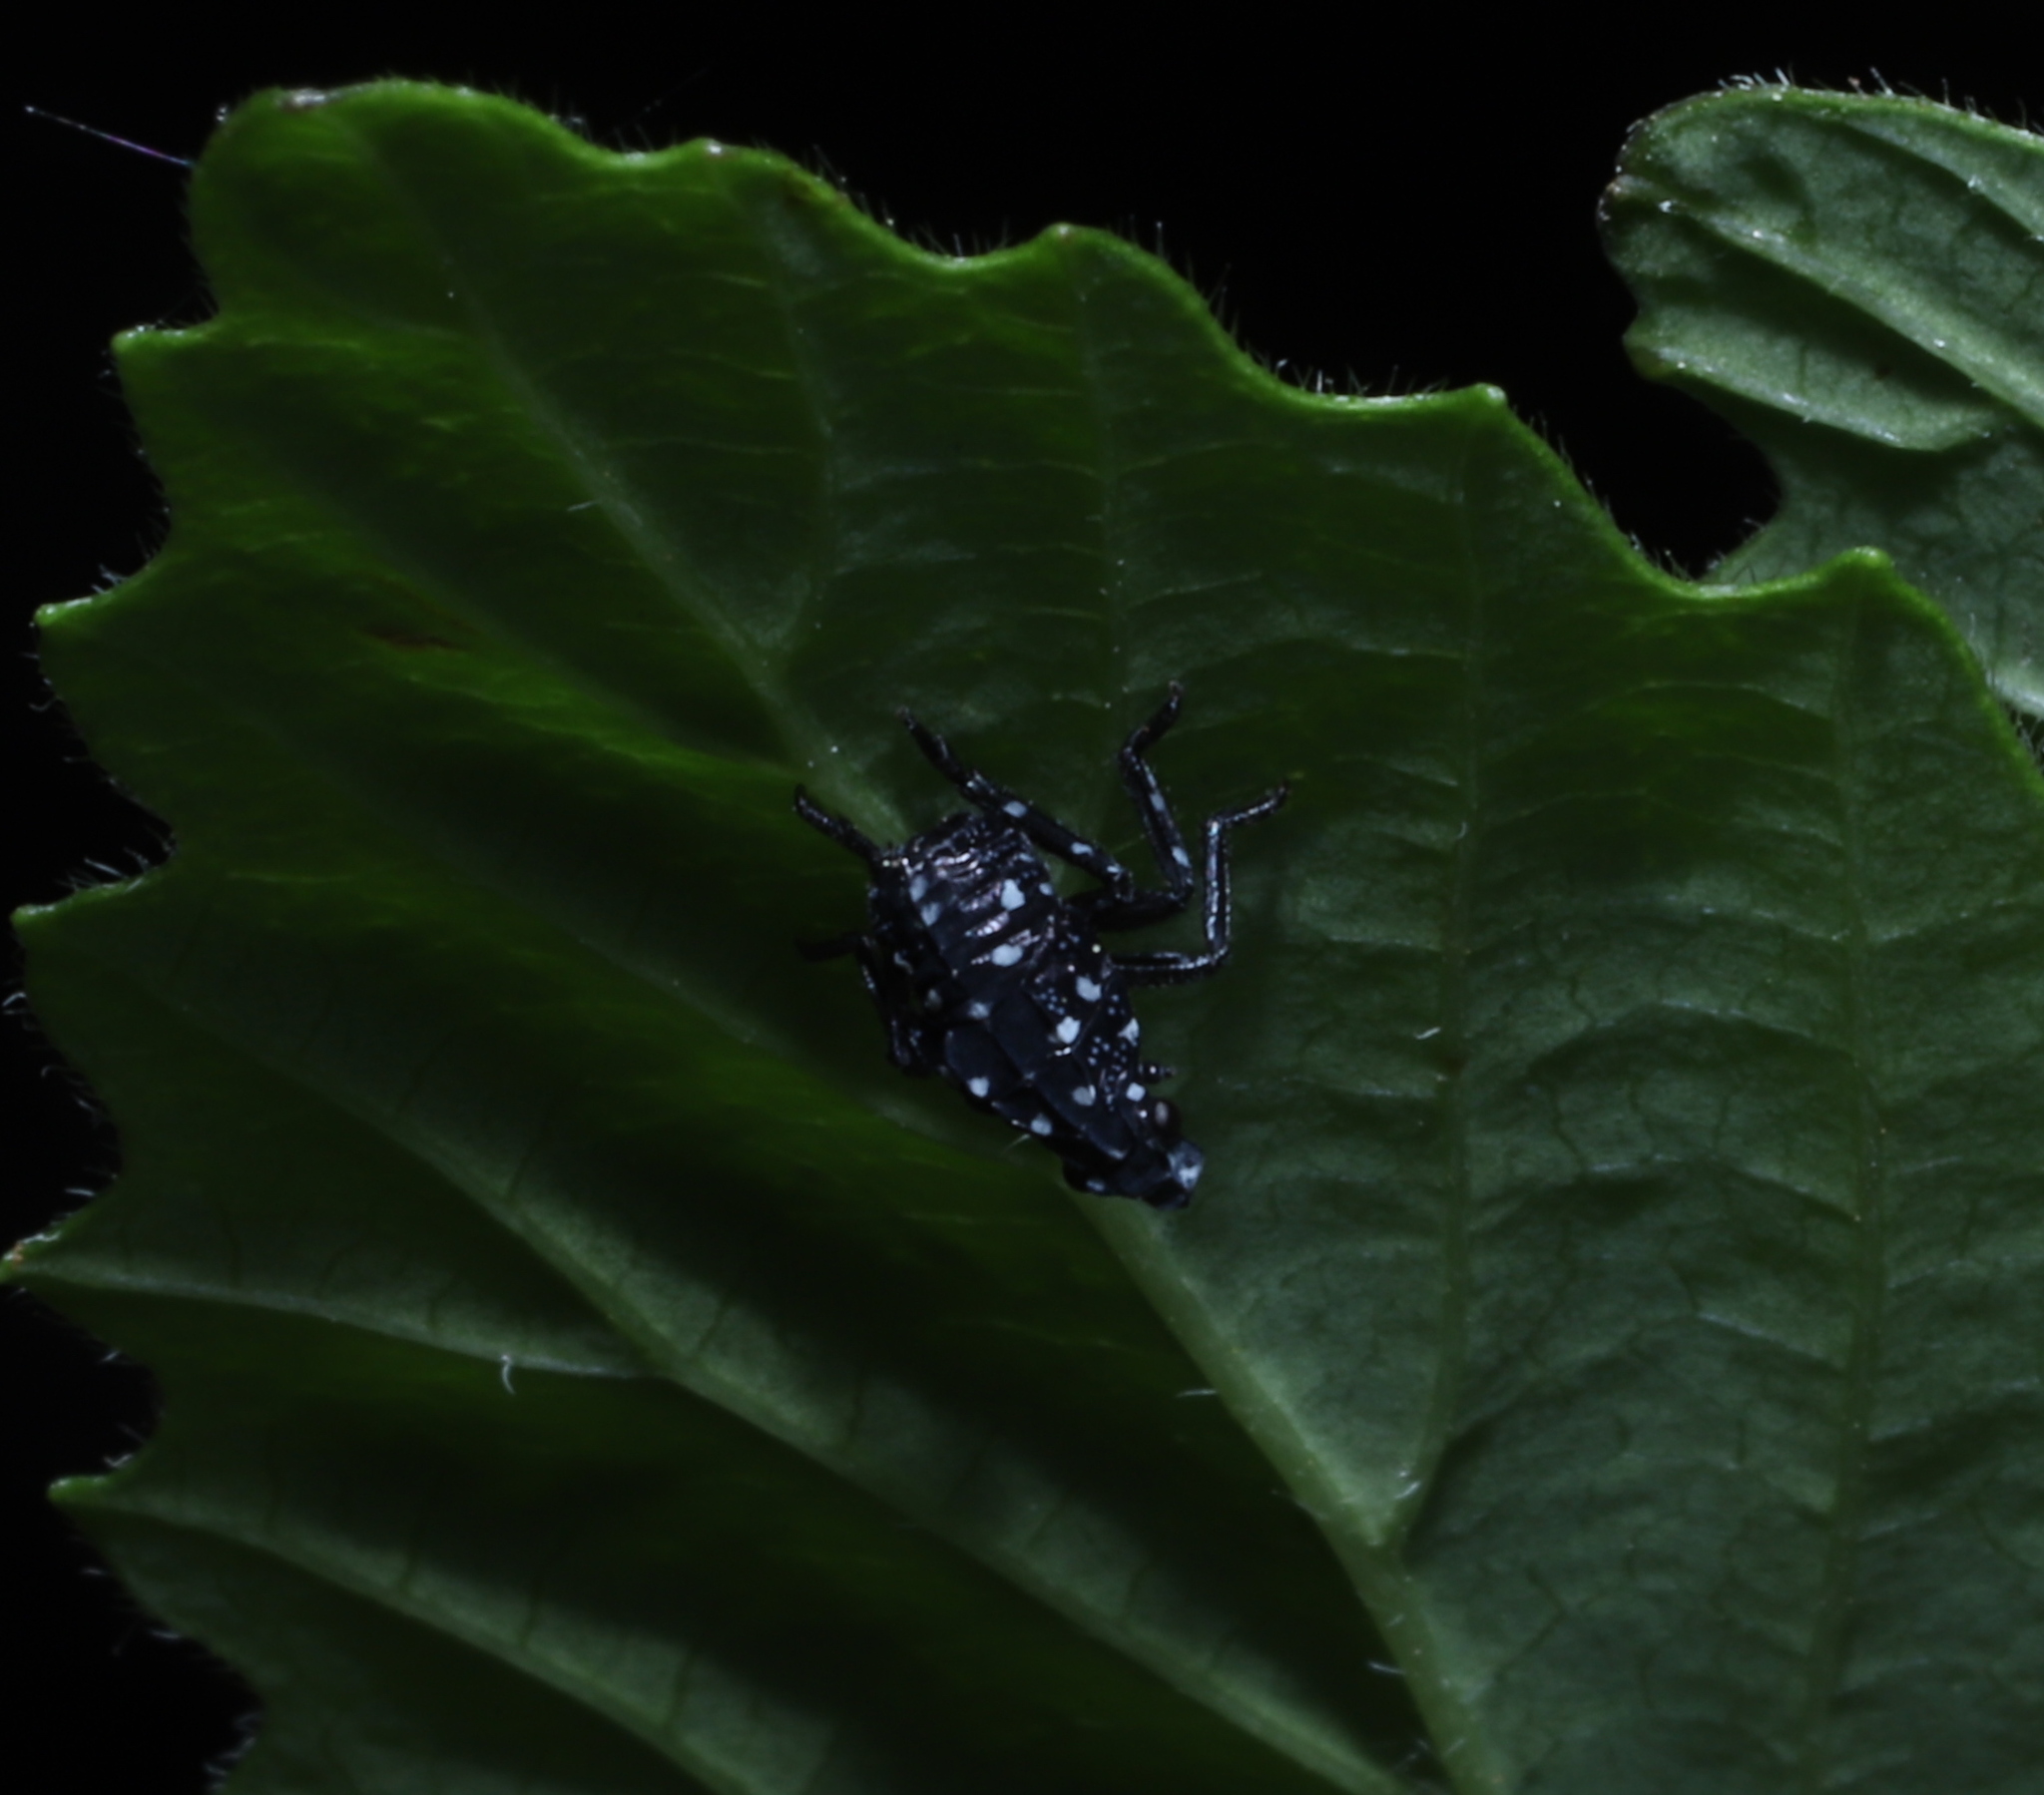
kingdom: Animalia
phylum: Arthropoda
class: Insecta
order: Hemiptera
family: Fulgoridae
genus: Lycorma
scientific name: Lycorma delicatula
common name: Spotted lanternfly
